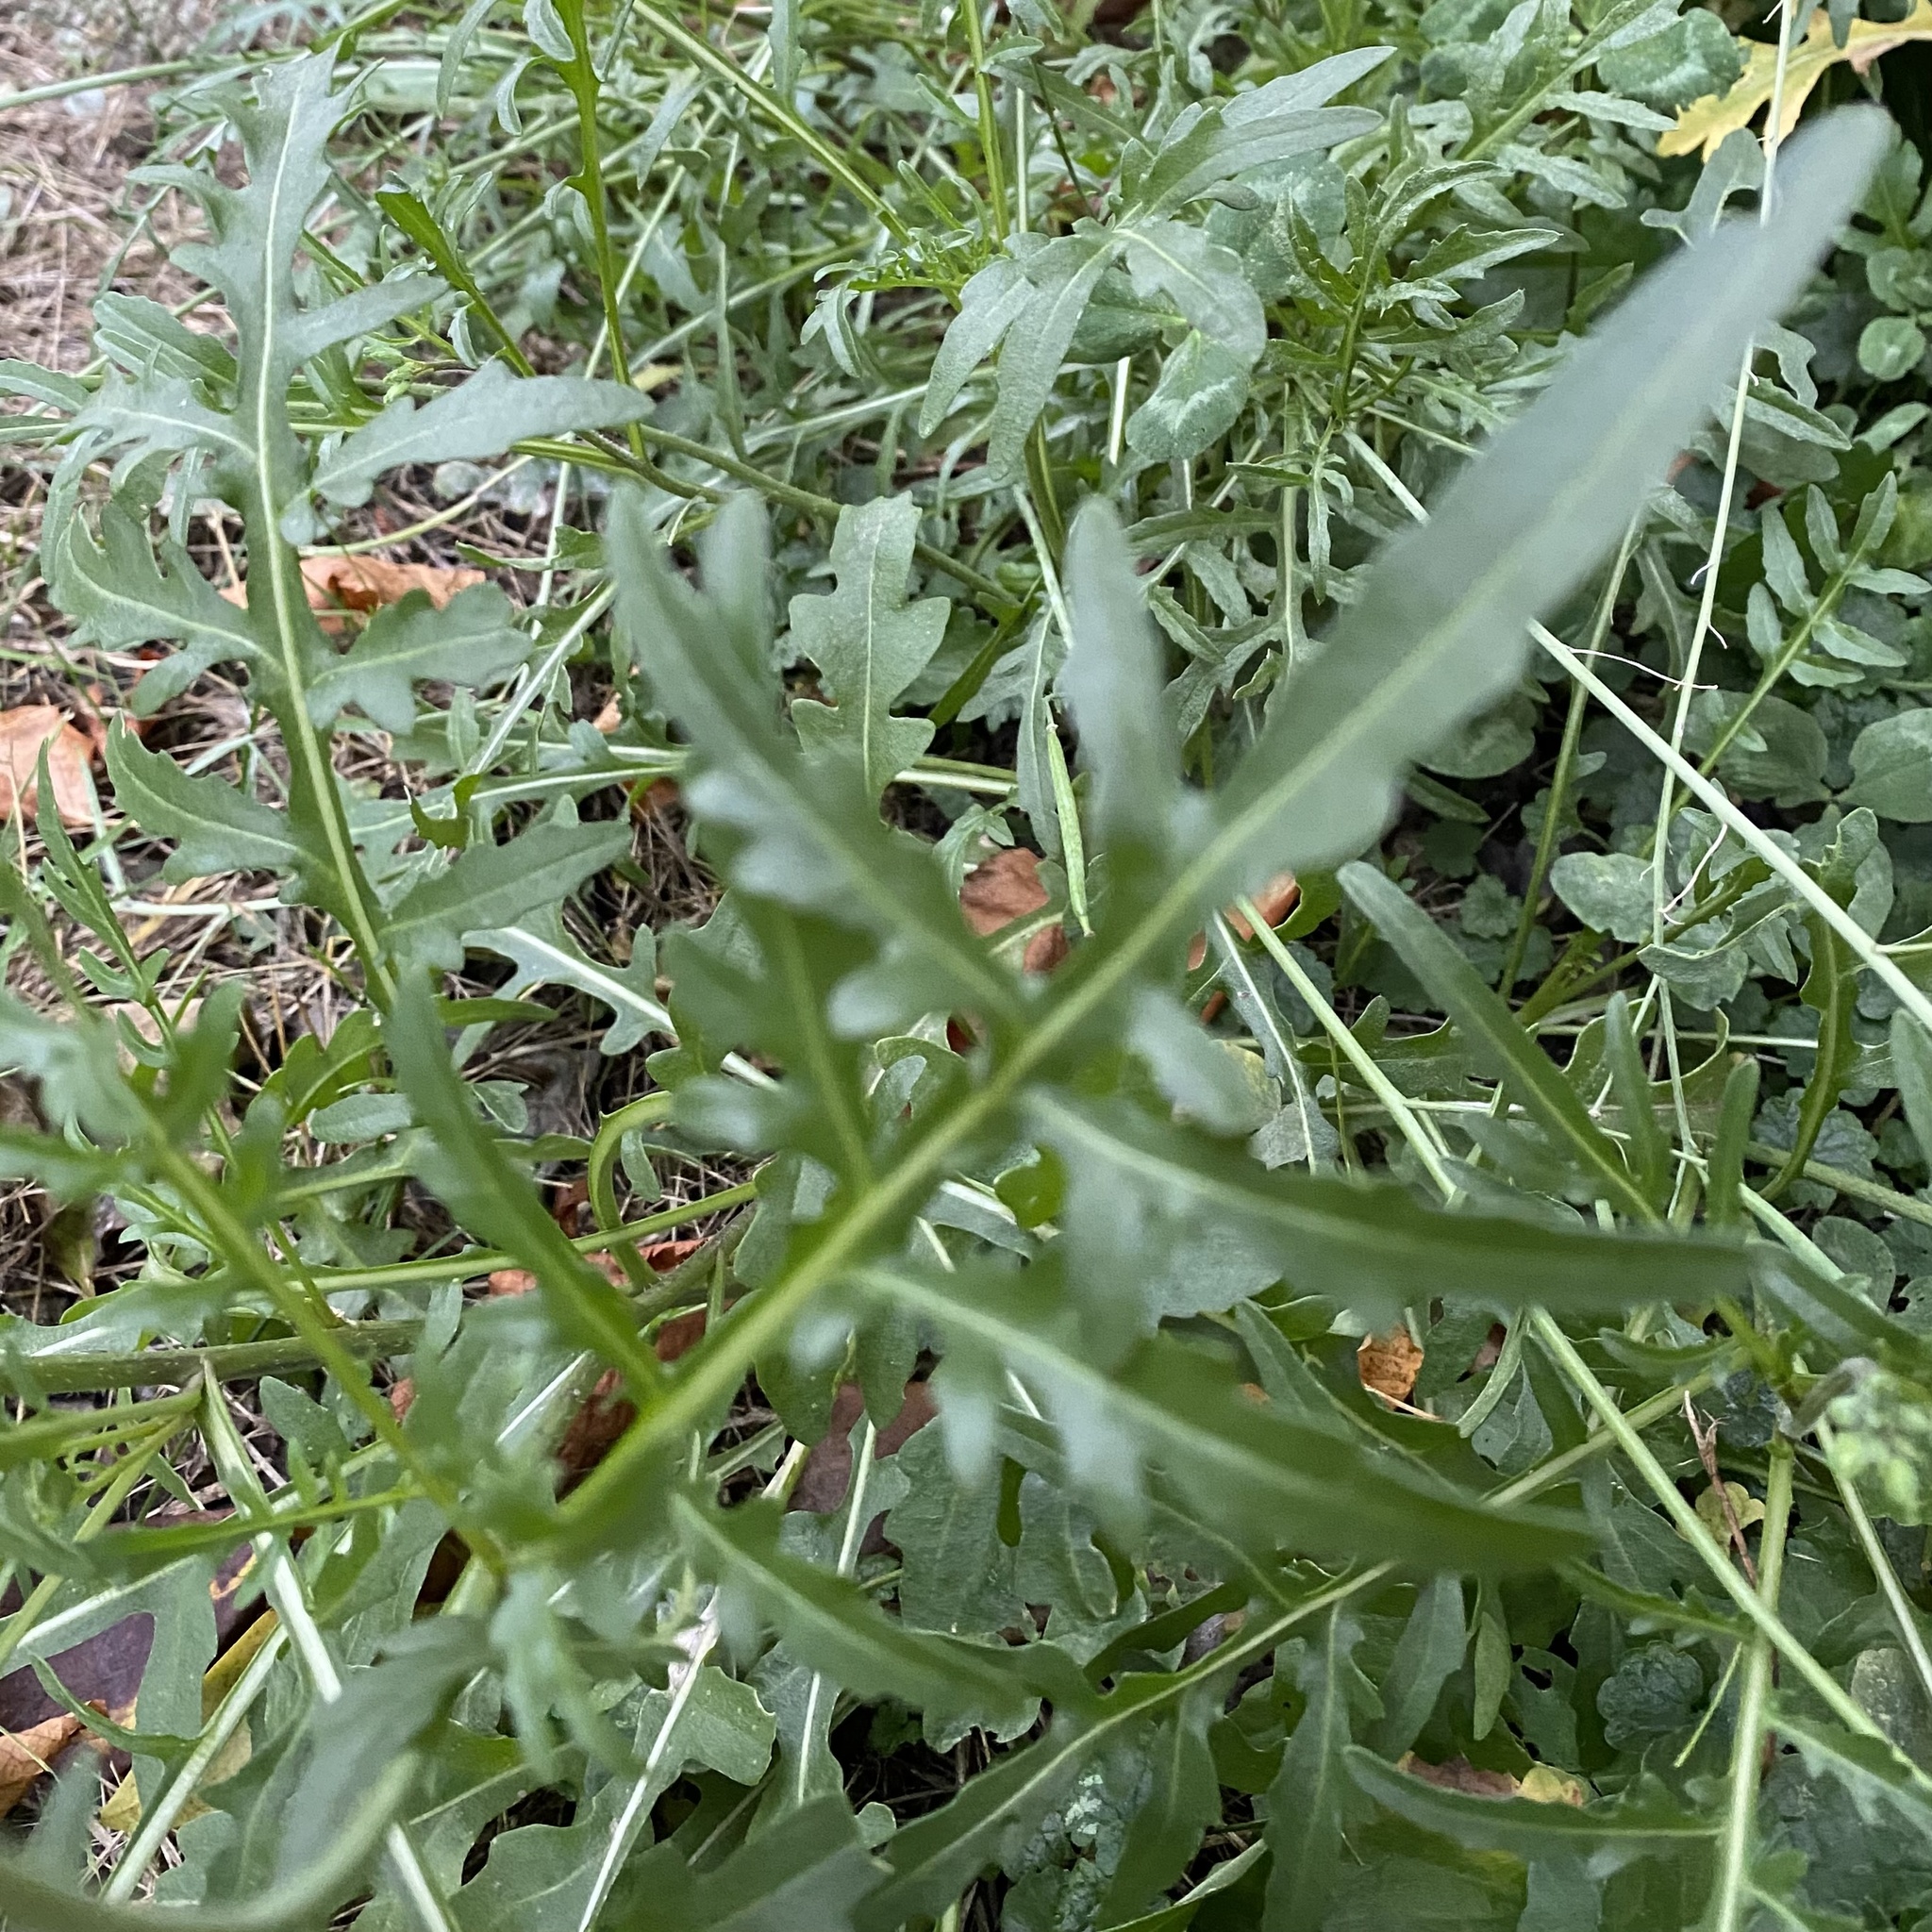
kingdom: Plantae
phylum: Tracheophyta
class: Magnoliopsida
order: Brassicales
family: Brassicaceae
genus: Diplotaxis
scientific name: Diplotaxis tenuifolia
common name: Perennial wall-rocket
